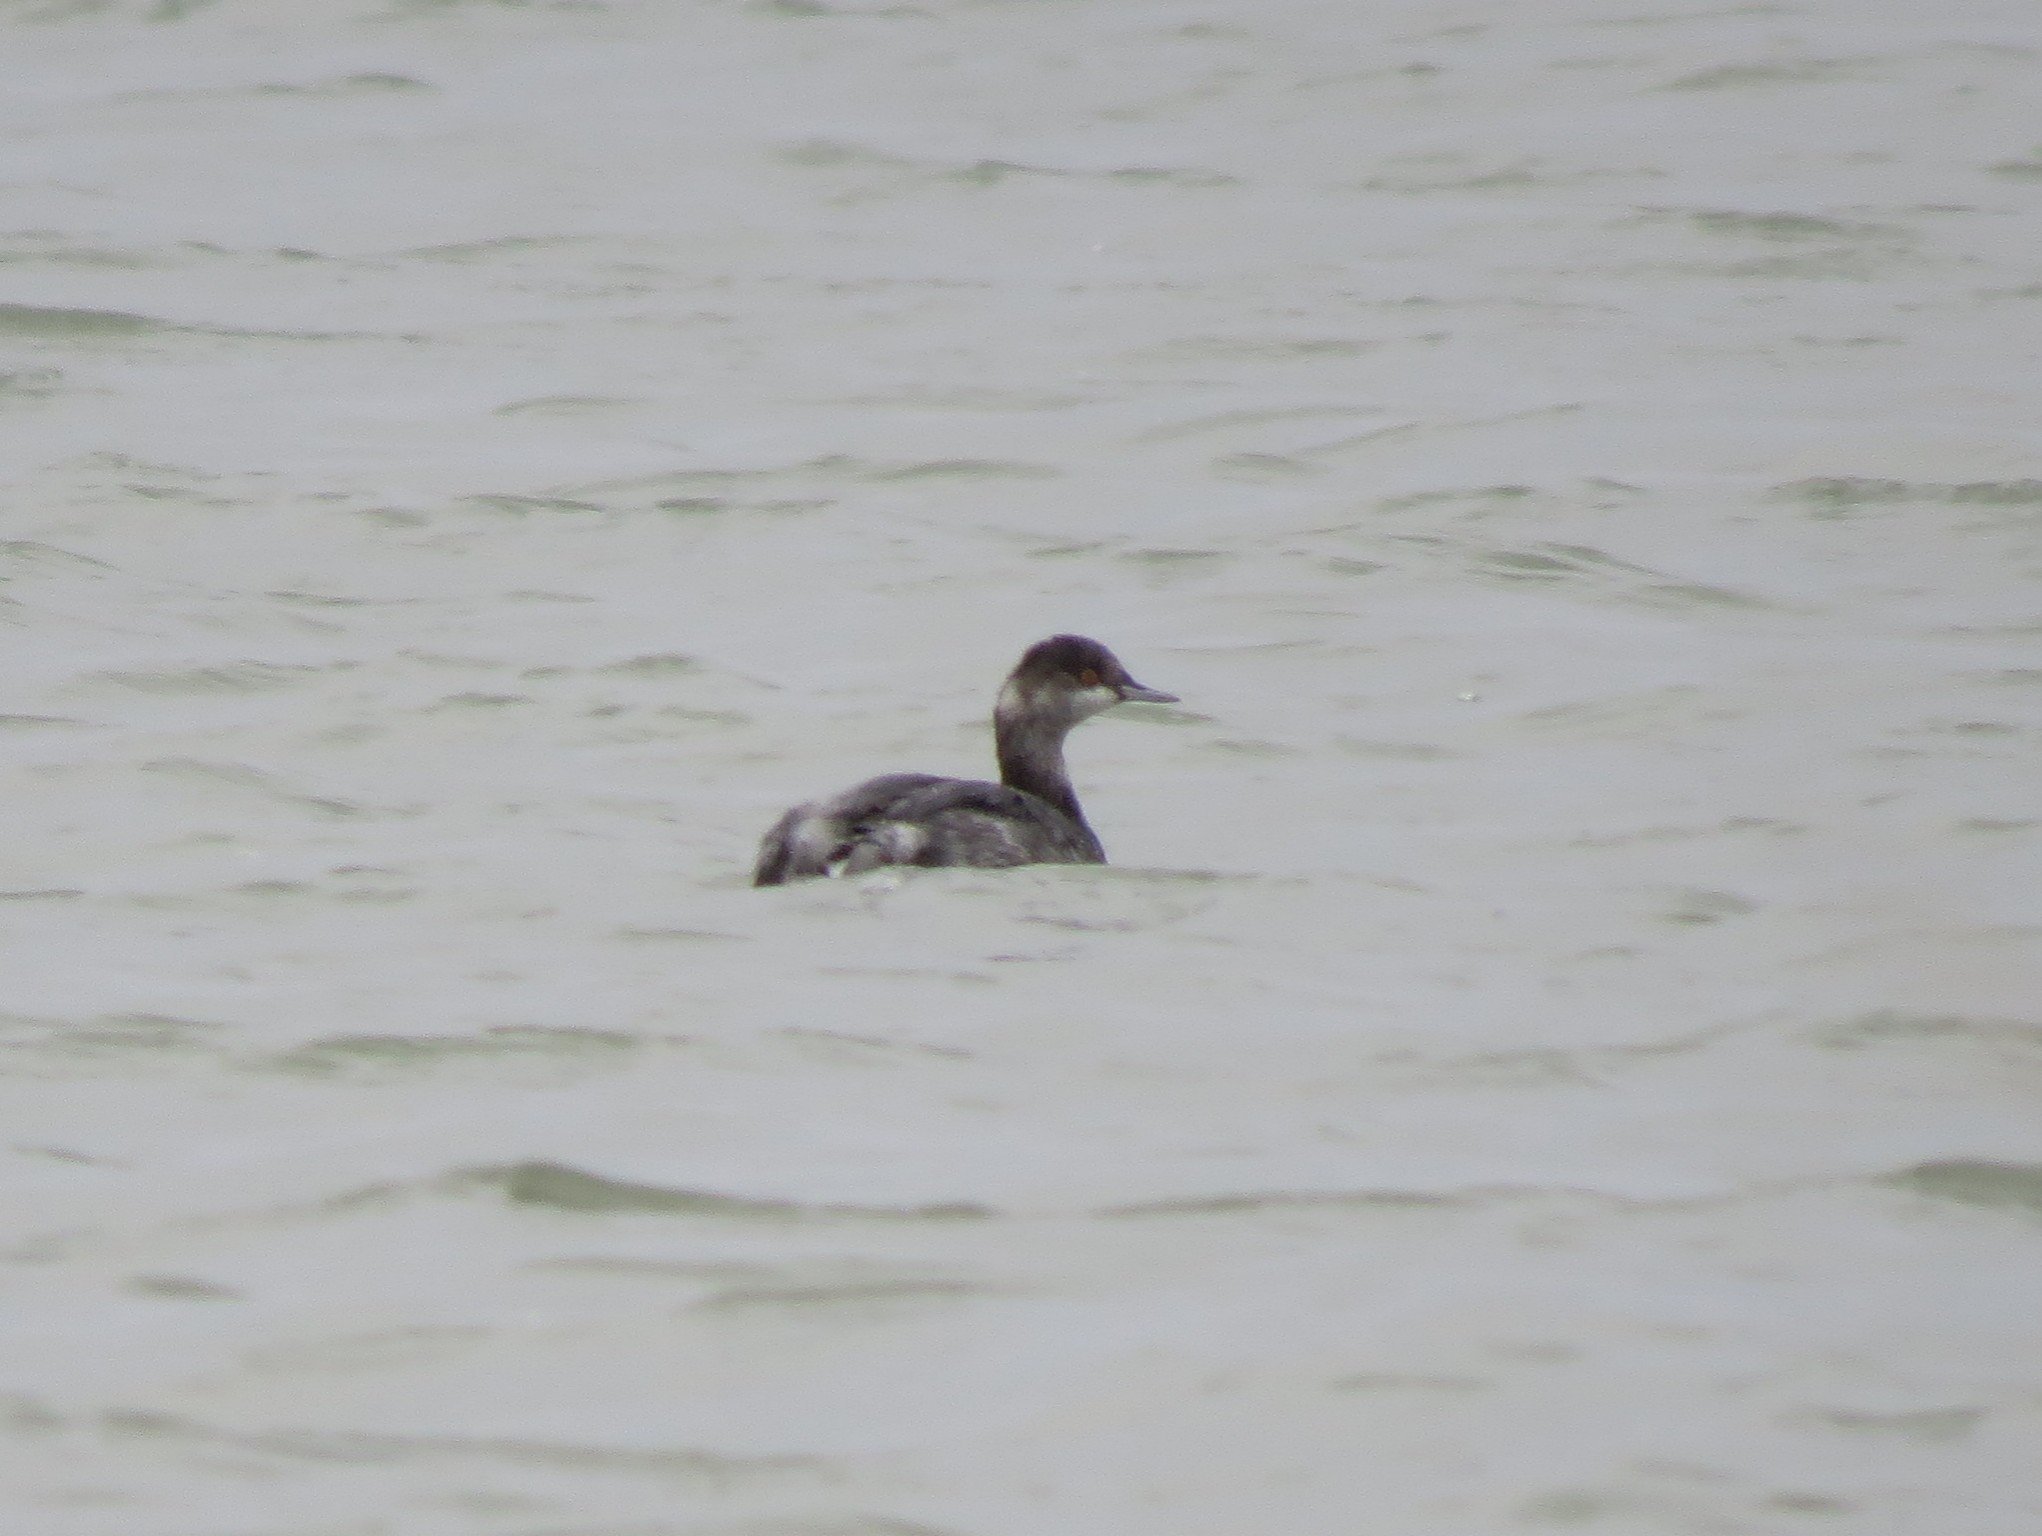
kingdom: Animalia
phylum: Chordata
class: Aves
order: Podicipediformes
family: Podicipedidae
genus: Podiceps
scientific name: Podiceps nigricollis
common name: Black-necked grebe
